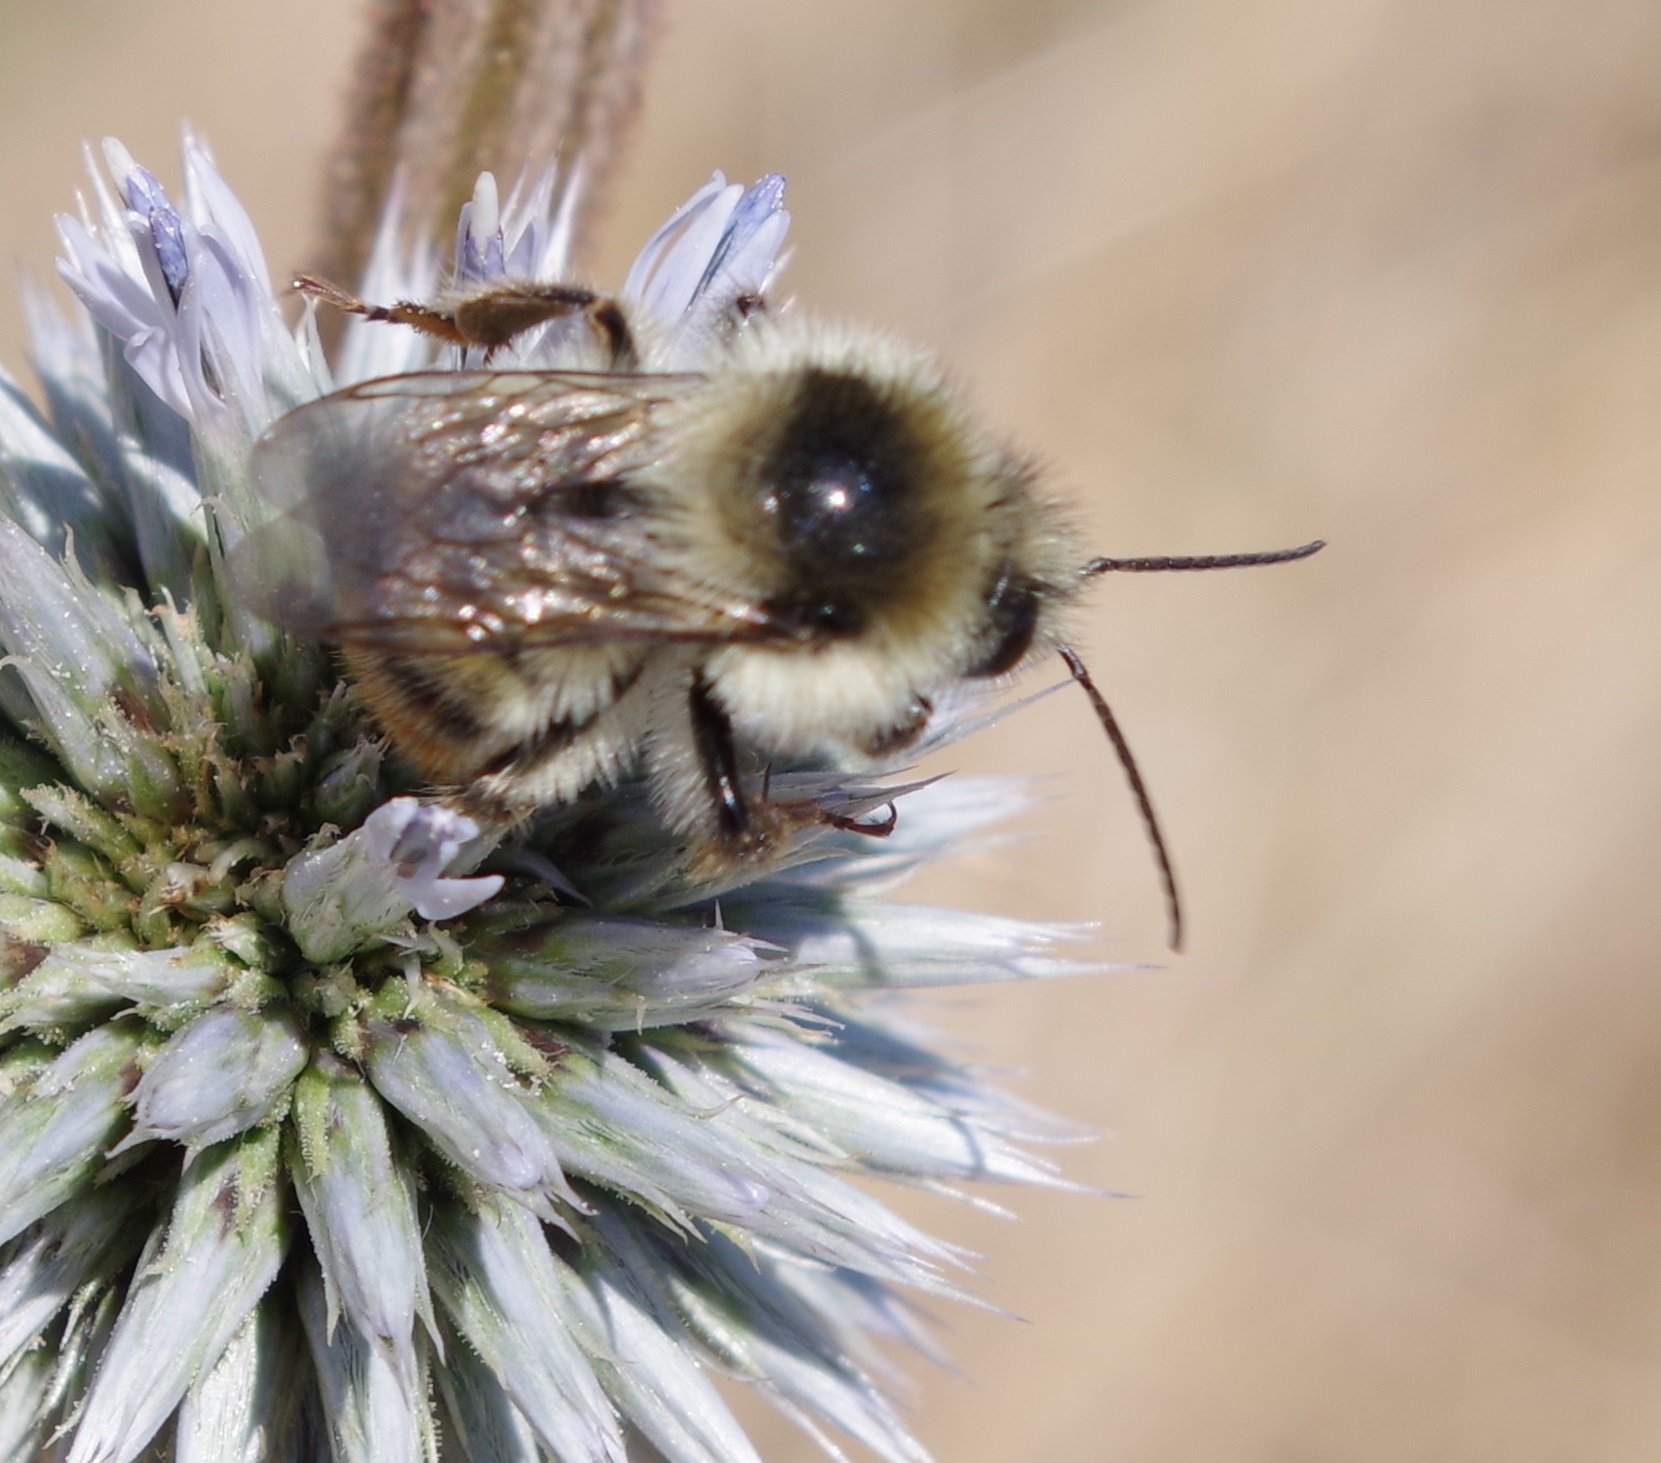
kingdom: Animalia
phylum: Arthropoda
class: Insecta
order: Hymenoptera
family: Apidae
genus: Bombus
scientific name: Bombus sylvarum
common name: Shrill carder bee
